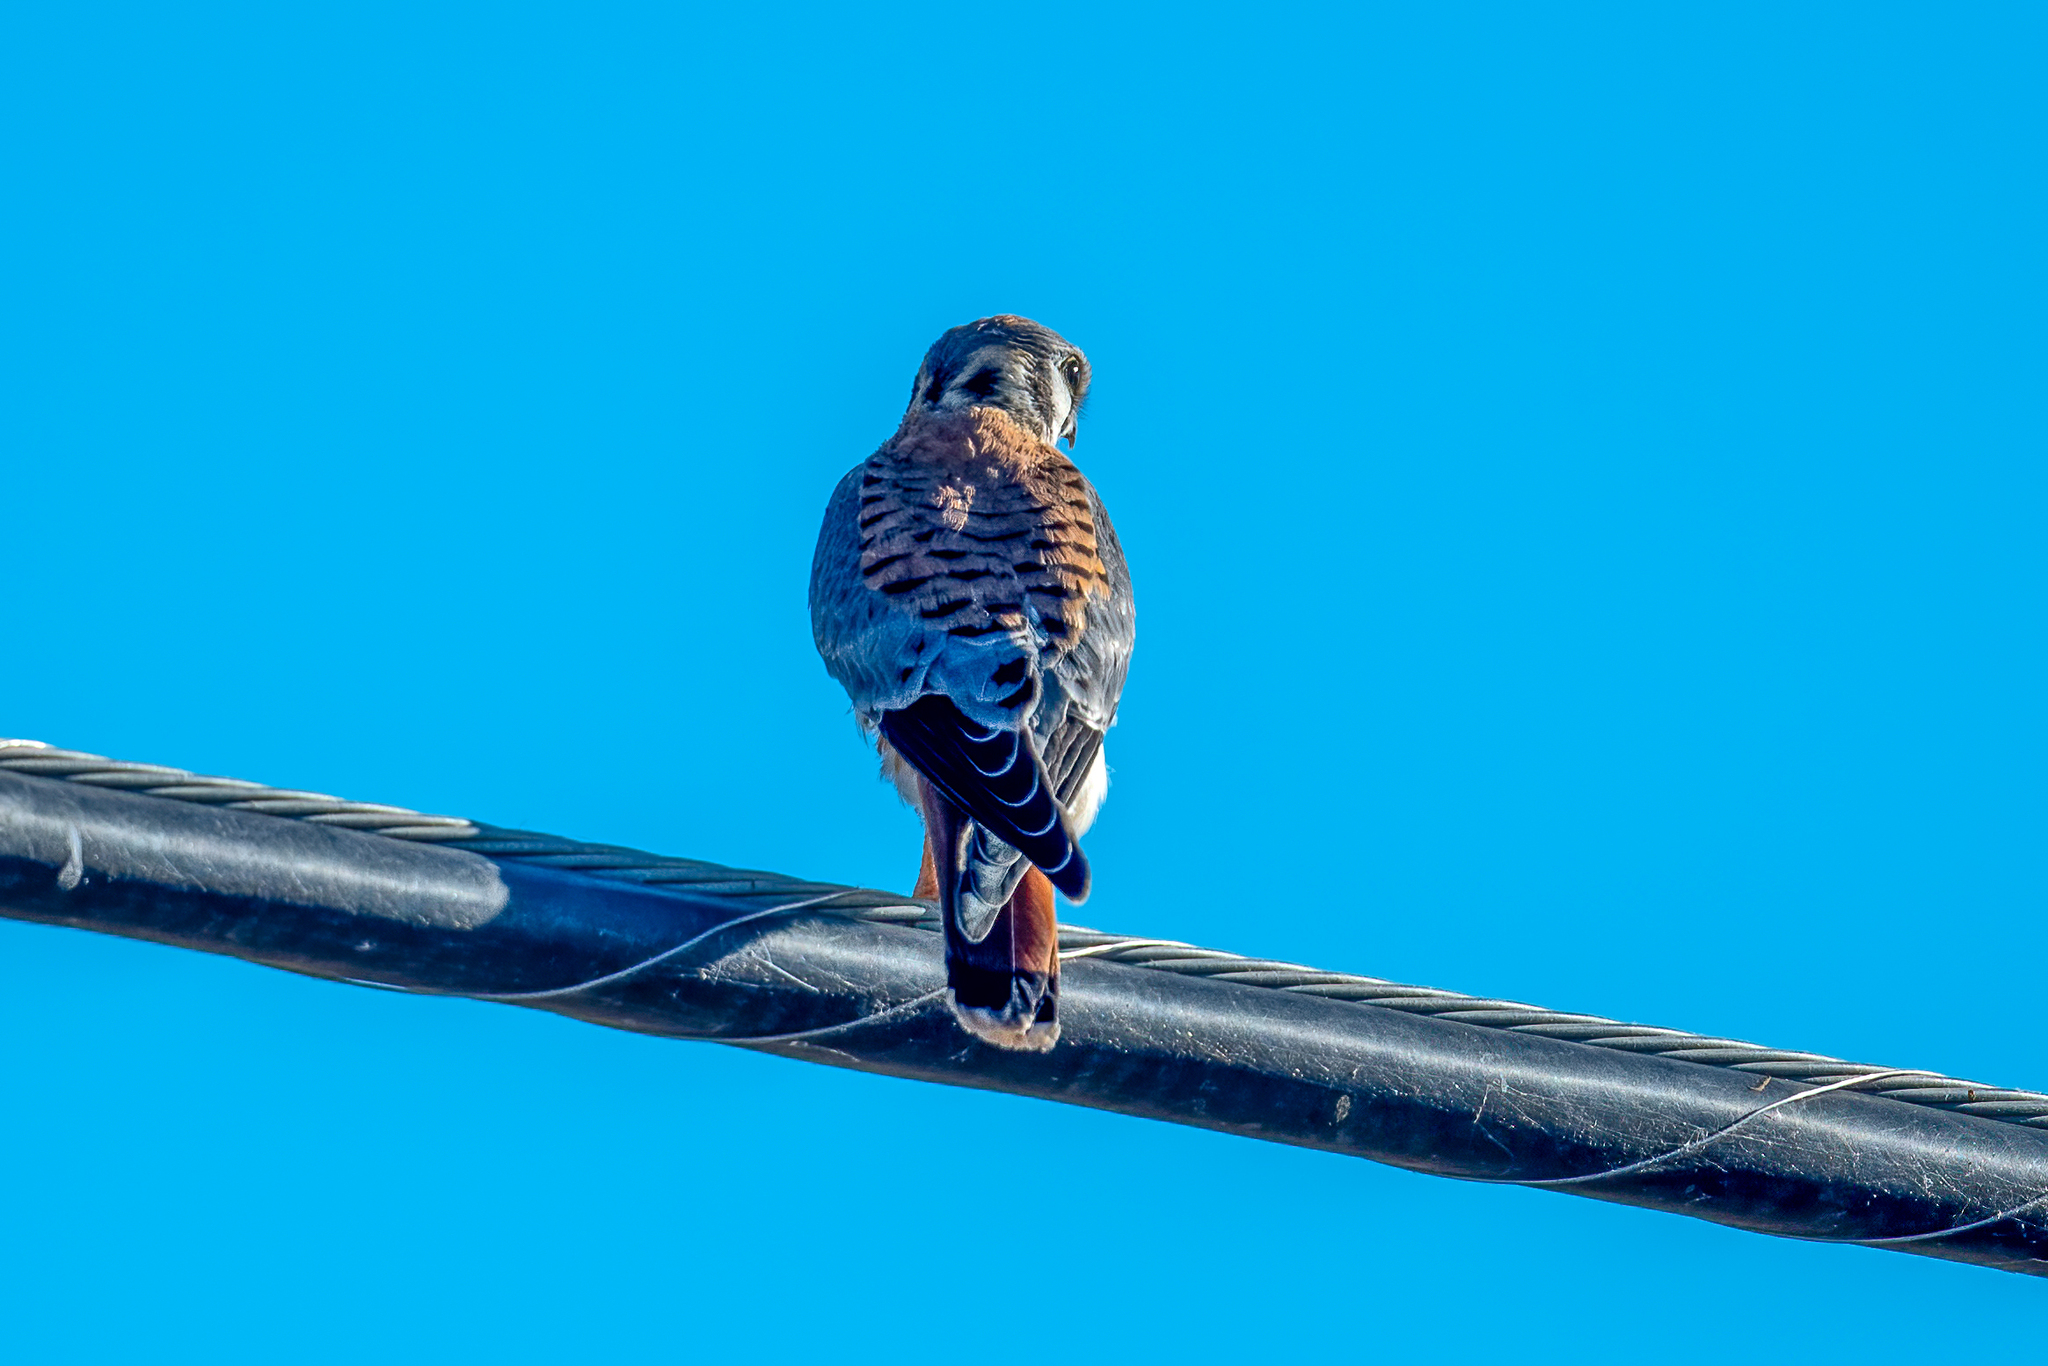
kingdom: Animalia
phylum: Chordata
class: Aves
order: Falconiformes
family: Falconidae
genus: Falco
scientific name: Falco sparverius
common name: American kestrel
